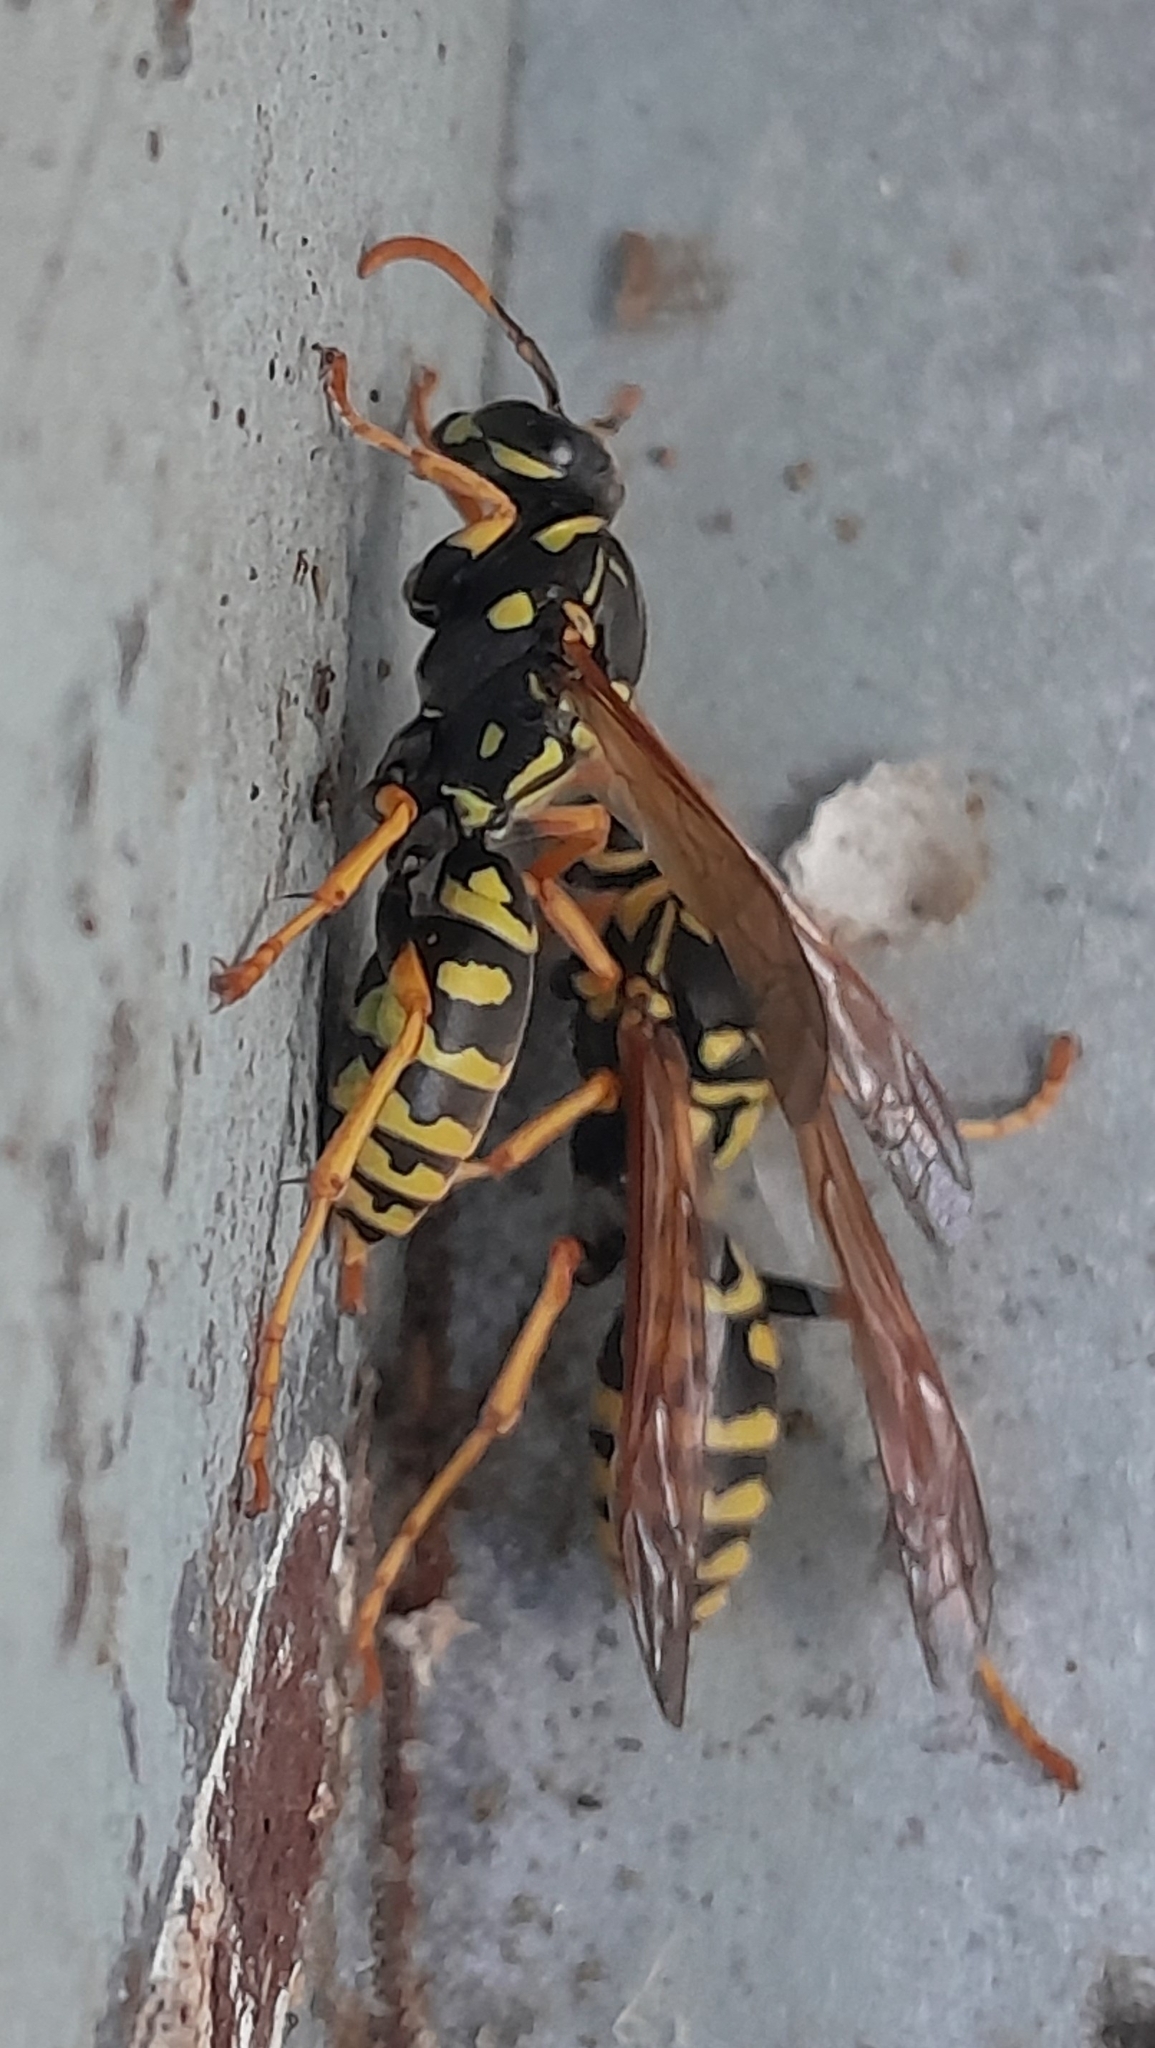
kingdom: Animalia
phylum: Arthropoda
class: Insecta
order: Hymenoptera
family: Eumenidae
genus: Polistes
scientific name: Polistes dominula
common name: Paper wasp
